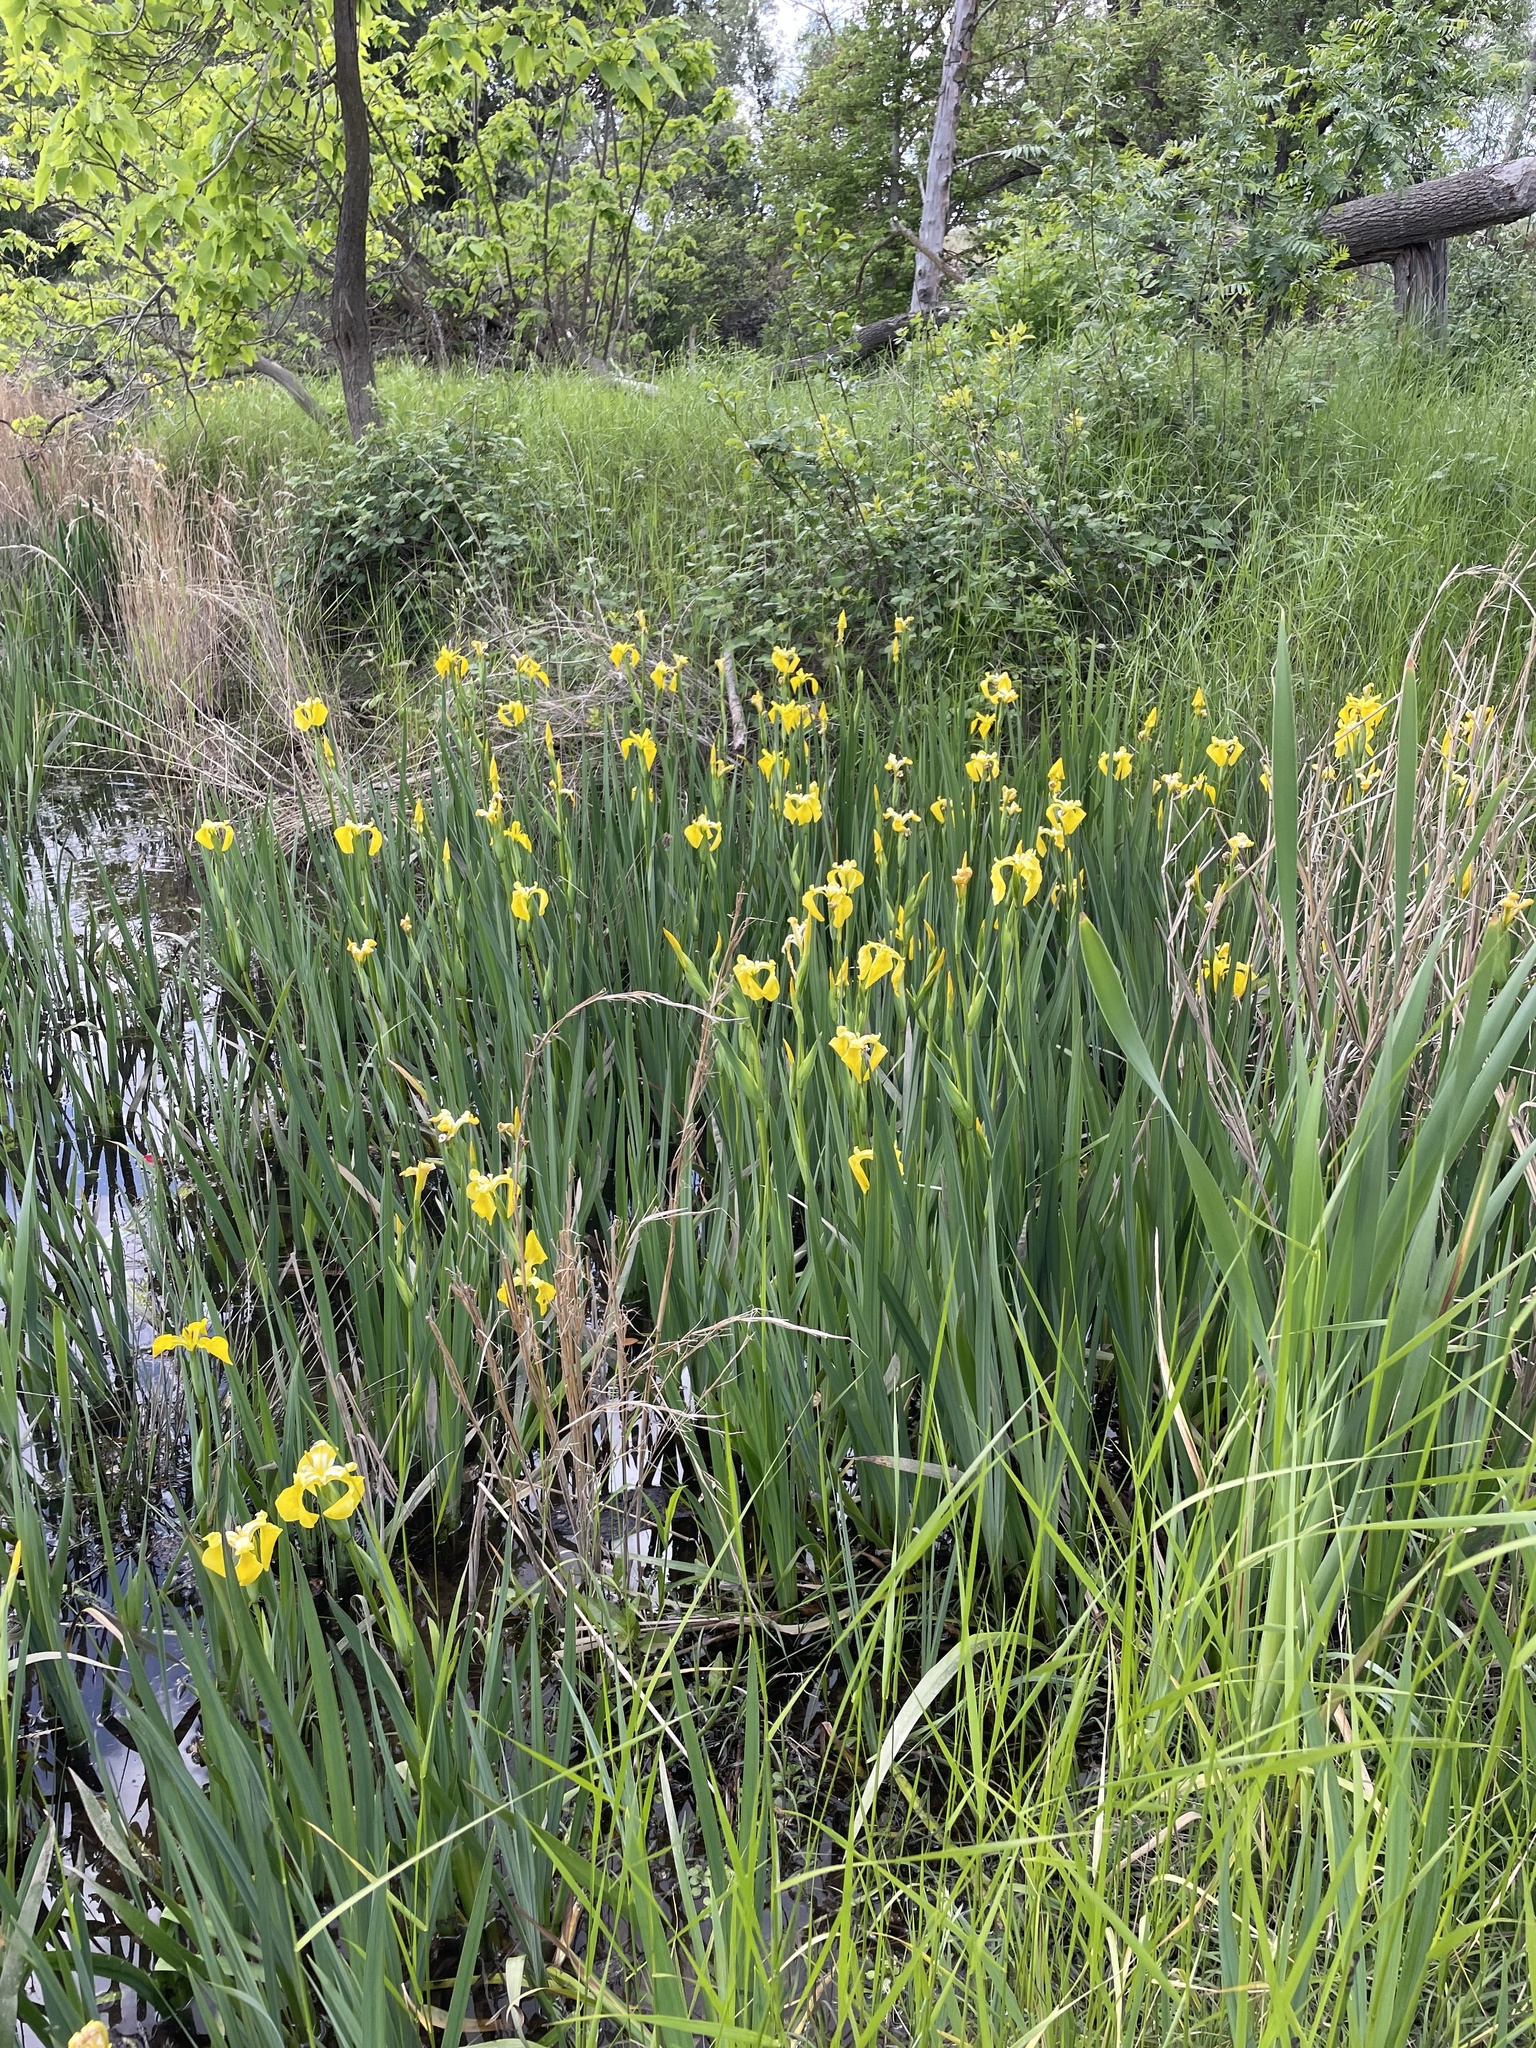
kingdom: Plantae
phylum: Tracheophyta
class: Liliopsida
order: Asparagales
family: Iridaceae
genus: Iris
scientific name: Iris pseudacorus
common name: Yellow flag
